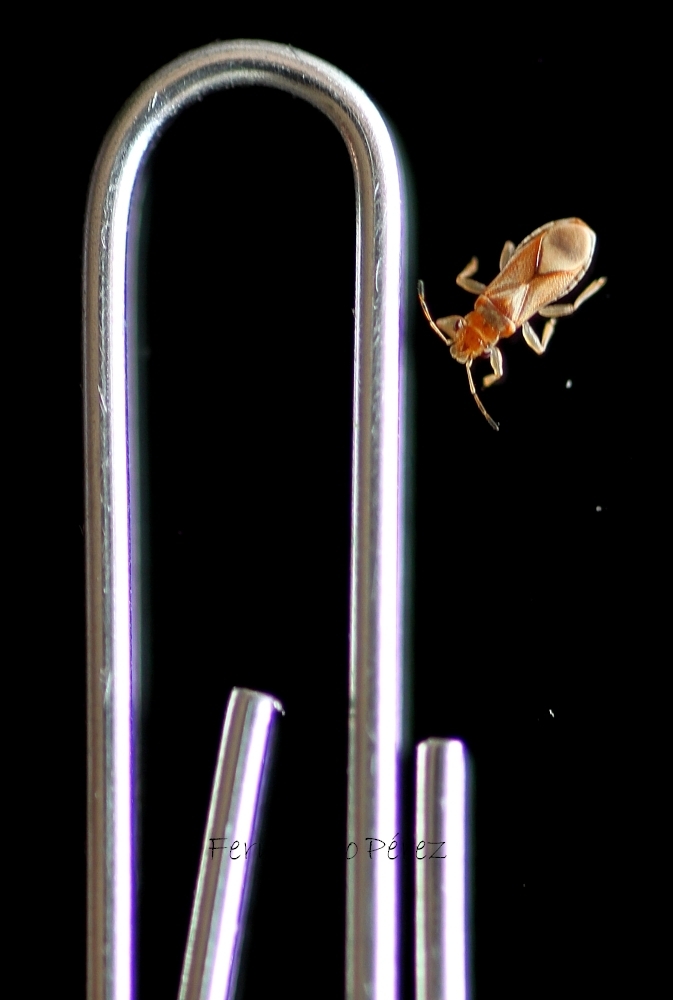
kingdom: Animalia
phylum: Arthropoda
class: Insecta
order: Hemiptera
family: Thaumastocoridae
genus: Thaumastocoris
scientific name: Thaumastocoris peregrinus
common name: Bronze bug
